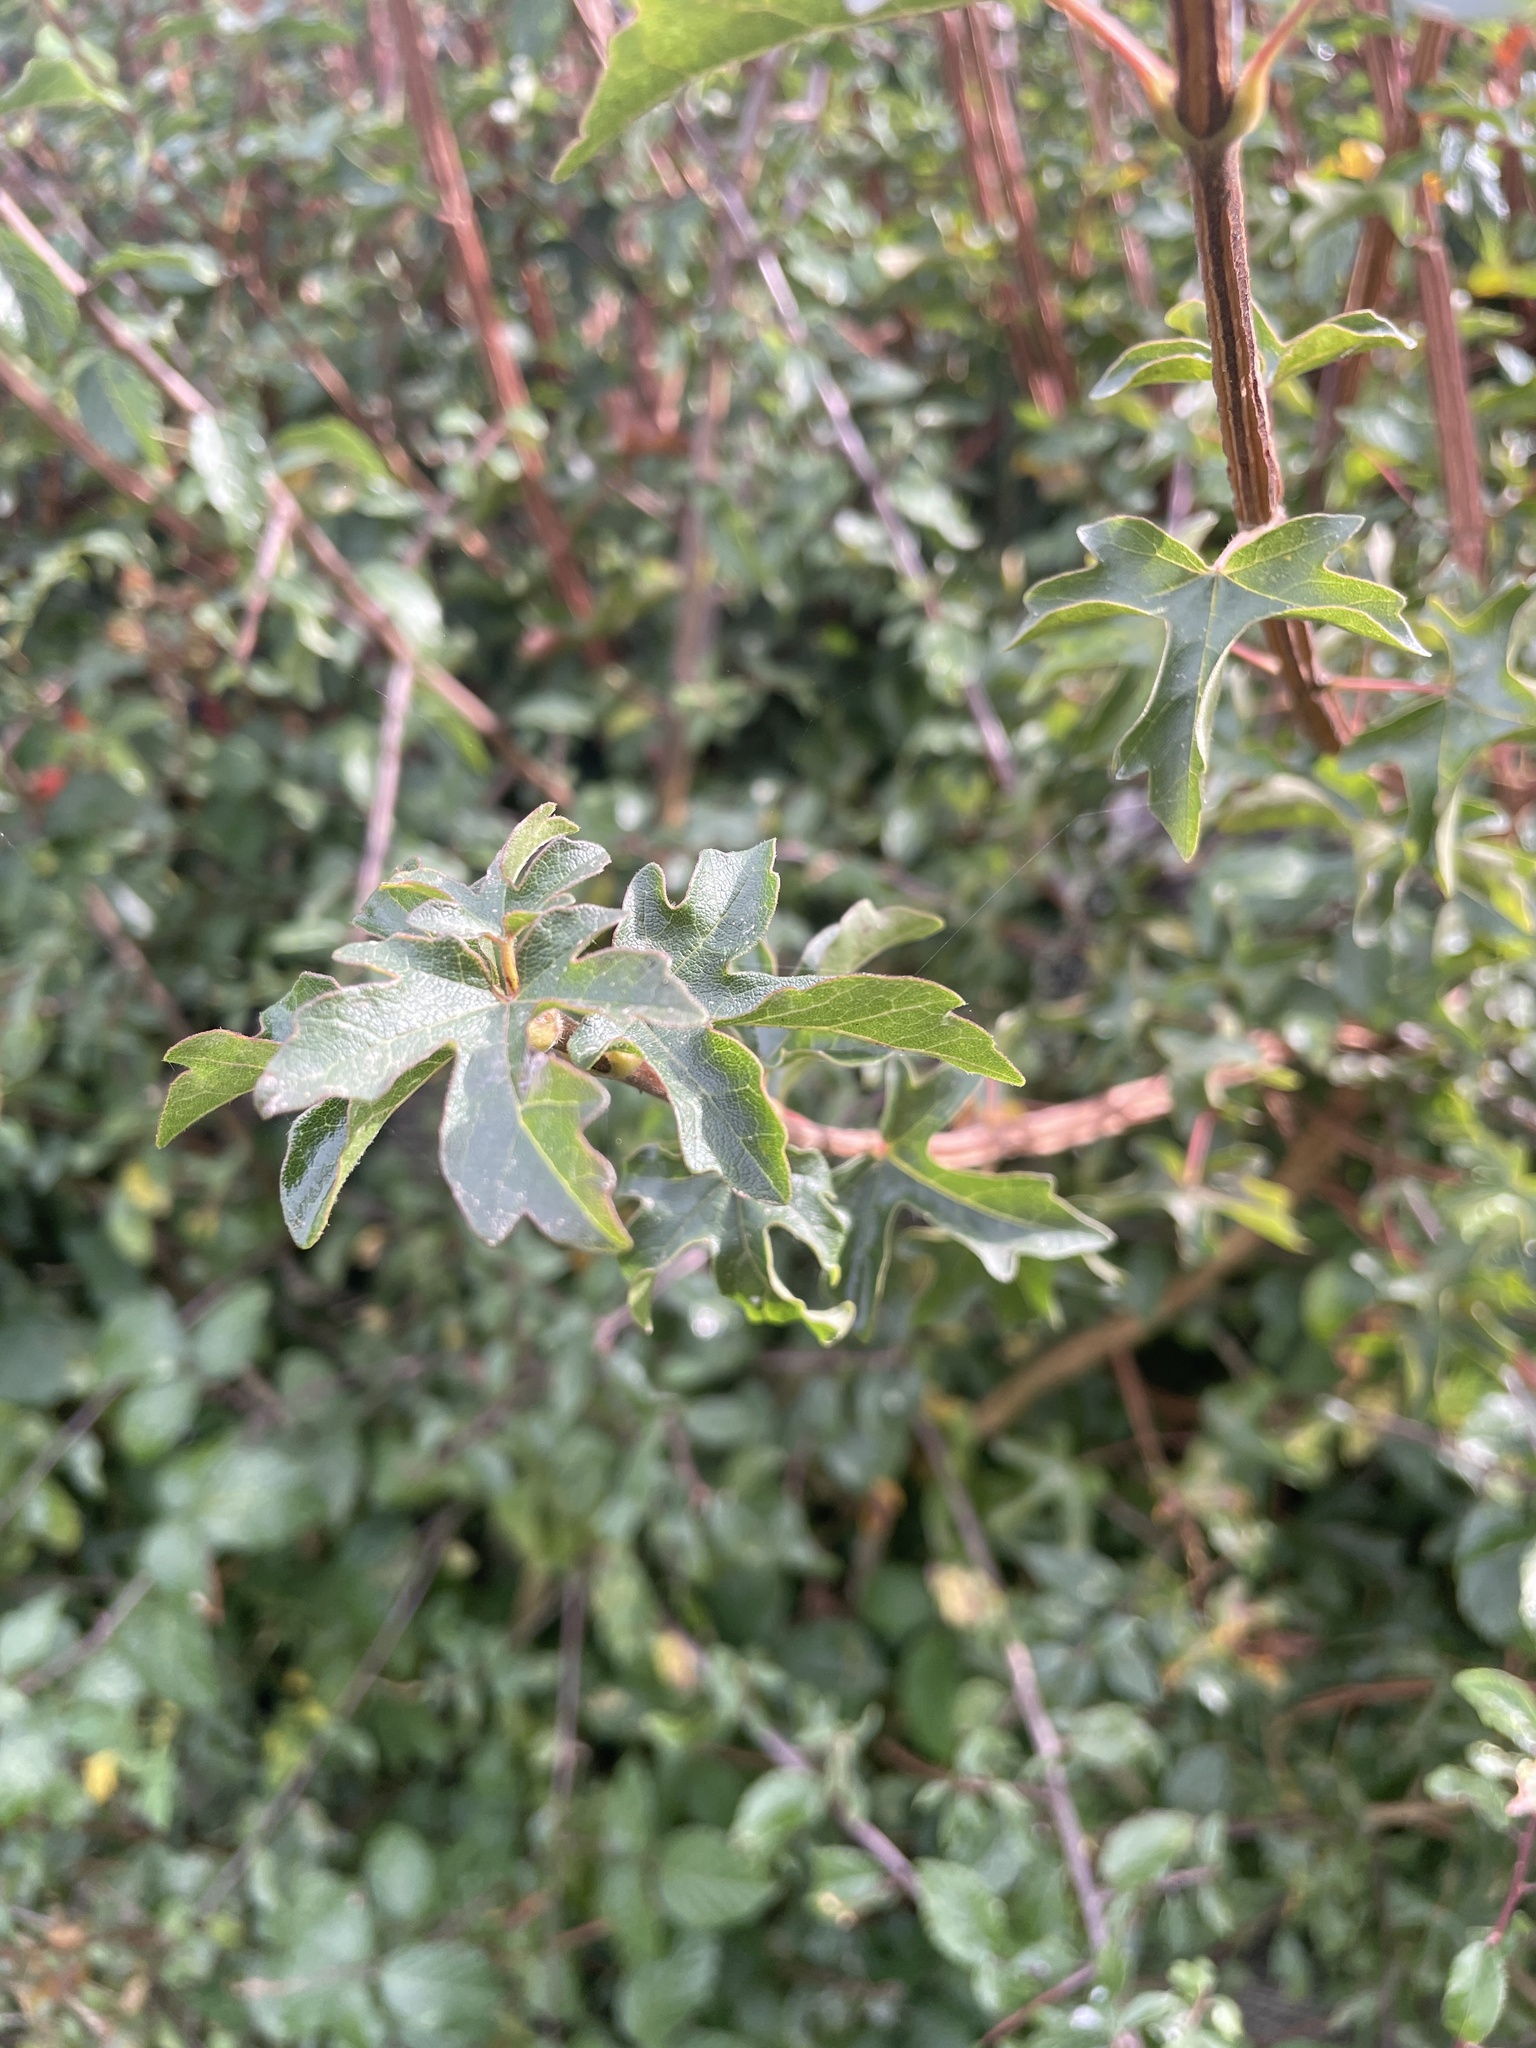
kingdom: Plantae
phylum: Tracheophyta
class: Magnoliopsida
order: Sapindales
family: Sapindaceae
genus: Acer
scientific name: Acer campestre
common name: Field maple
